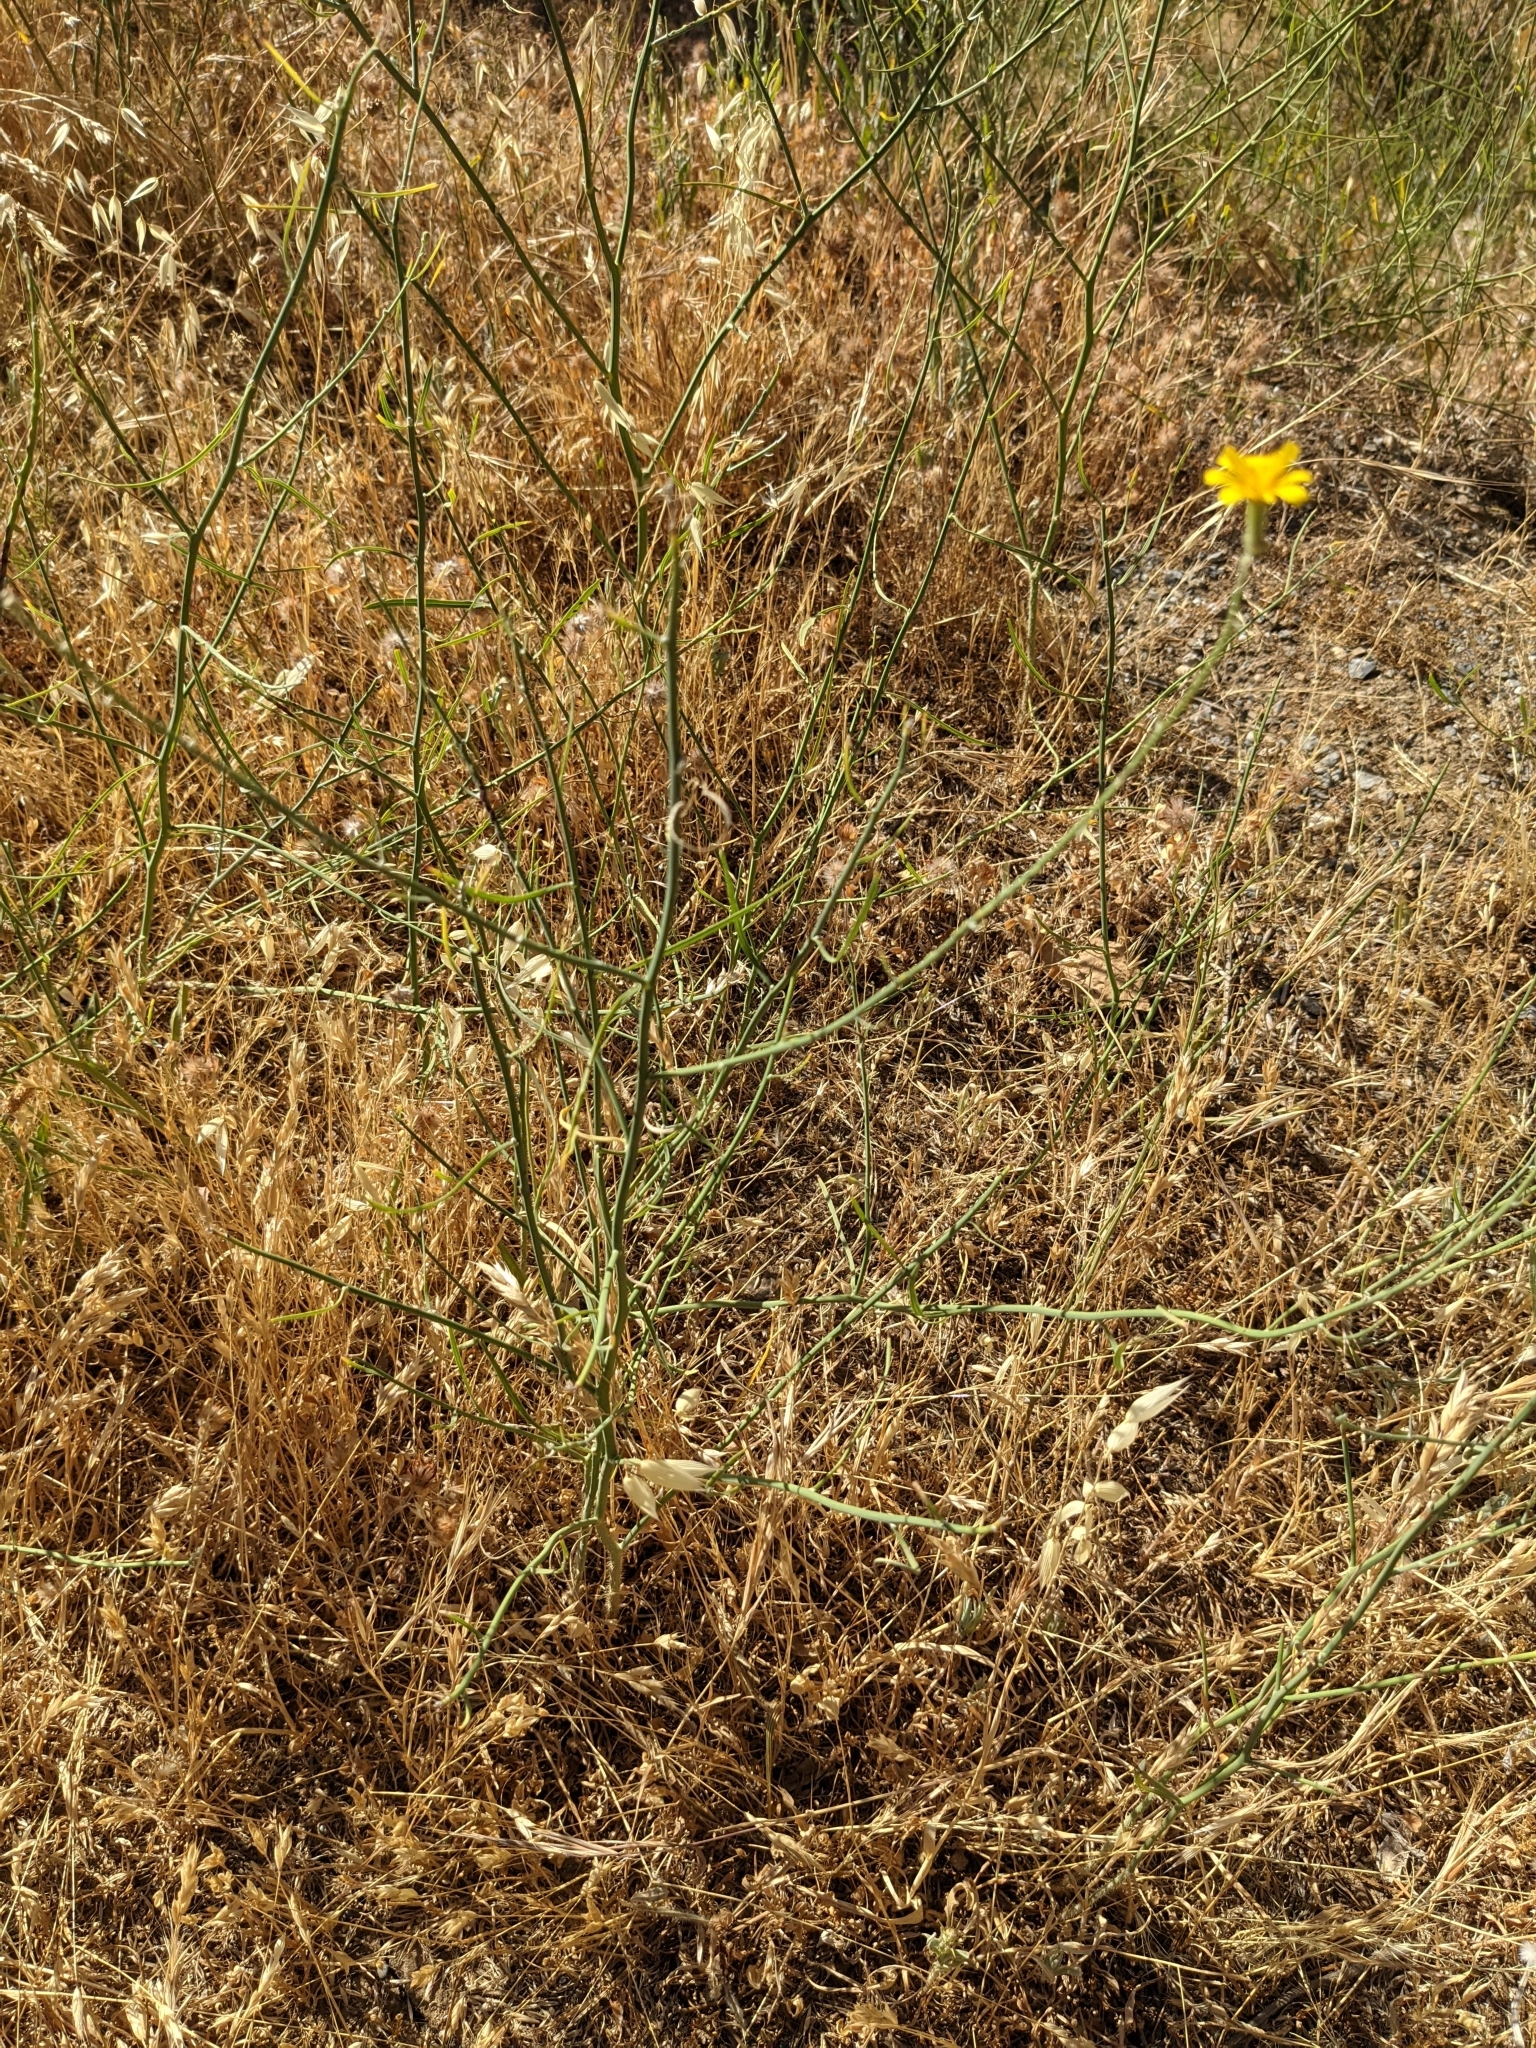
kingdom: Plantae
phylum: Tracheophyta
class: Magnoliopsida
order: Asterales
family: Asteraceae
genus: Chondrilla
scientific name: Chondrilla juncea
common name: Skeleton weed
